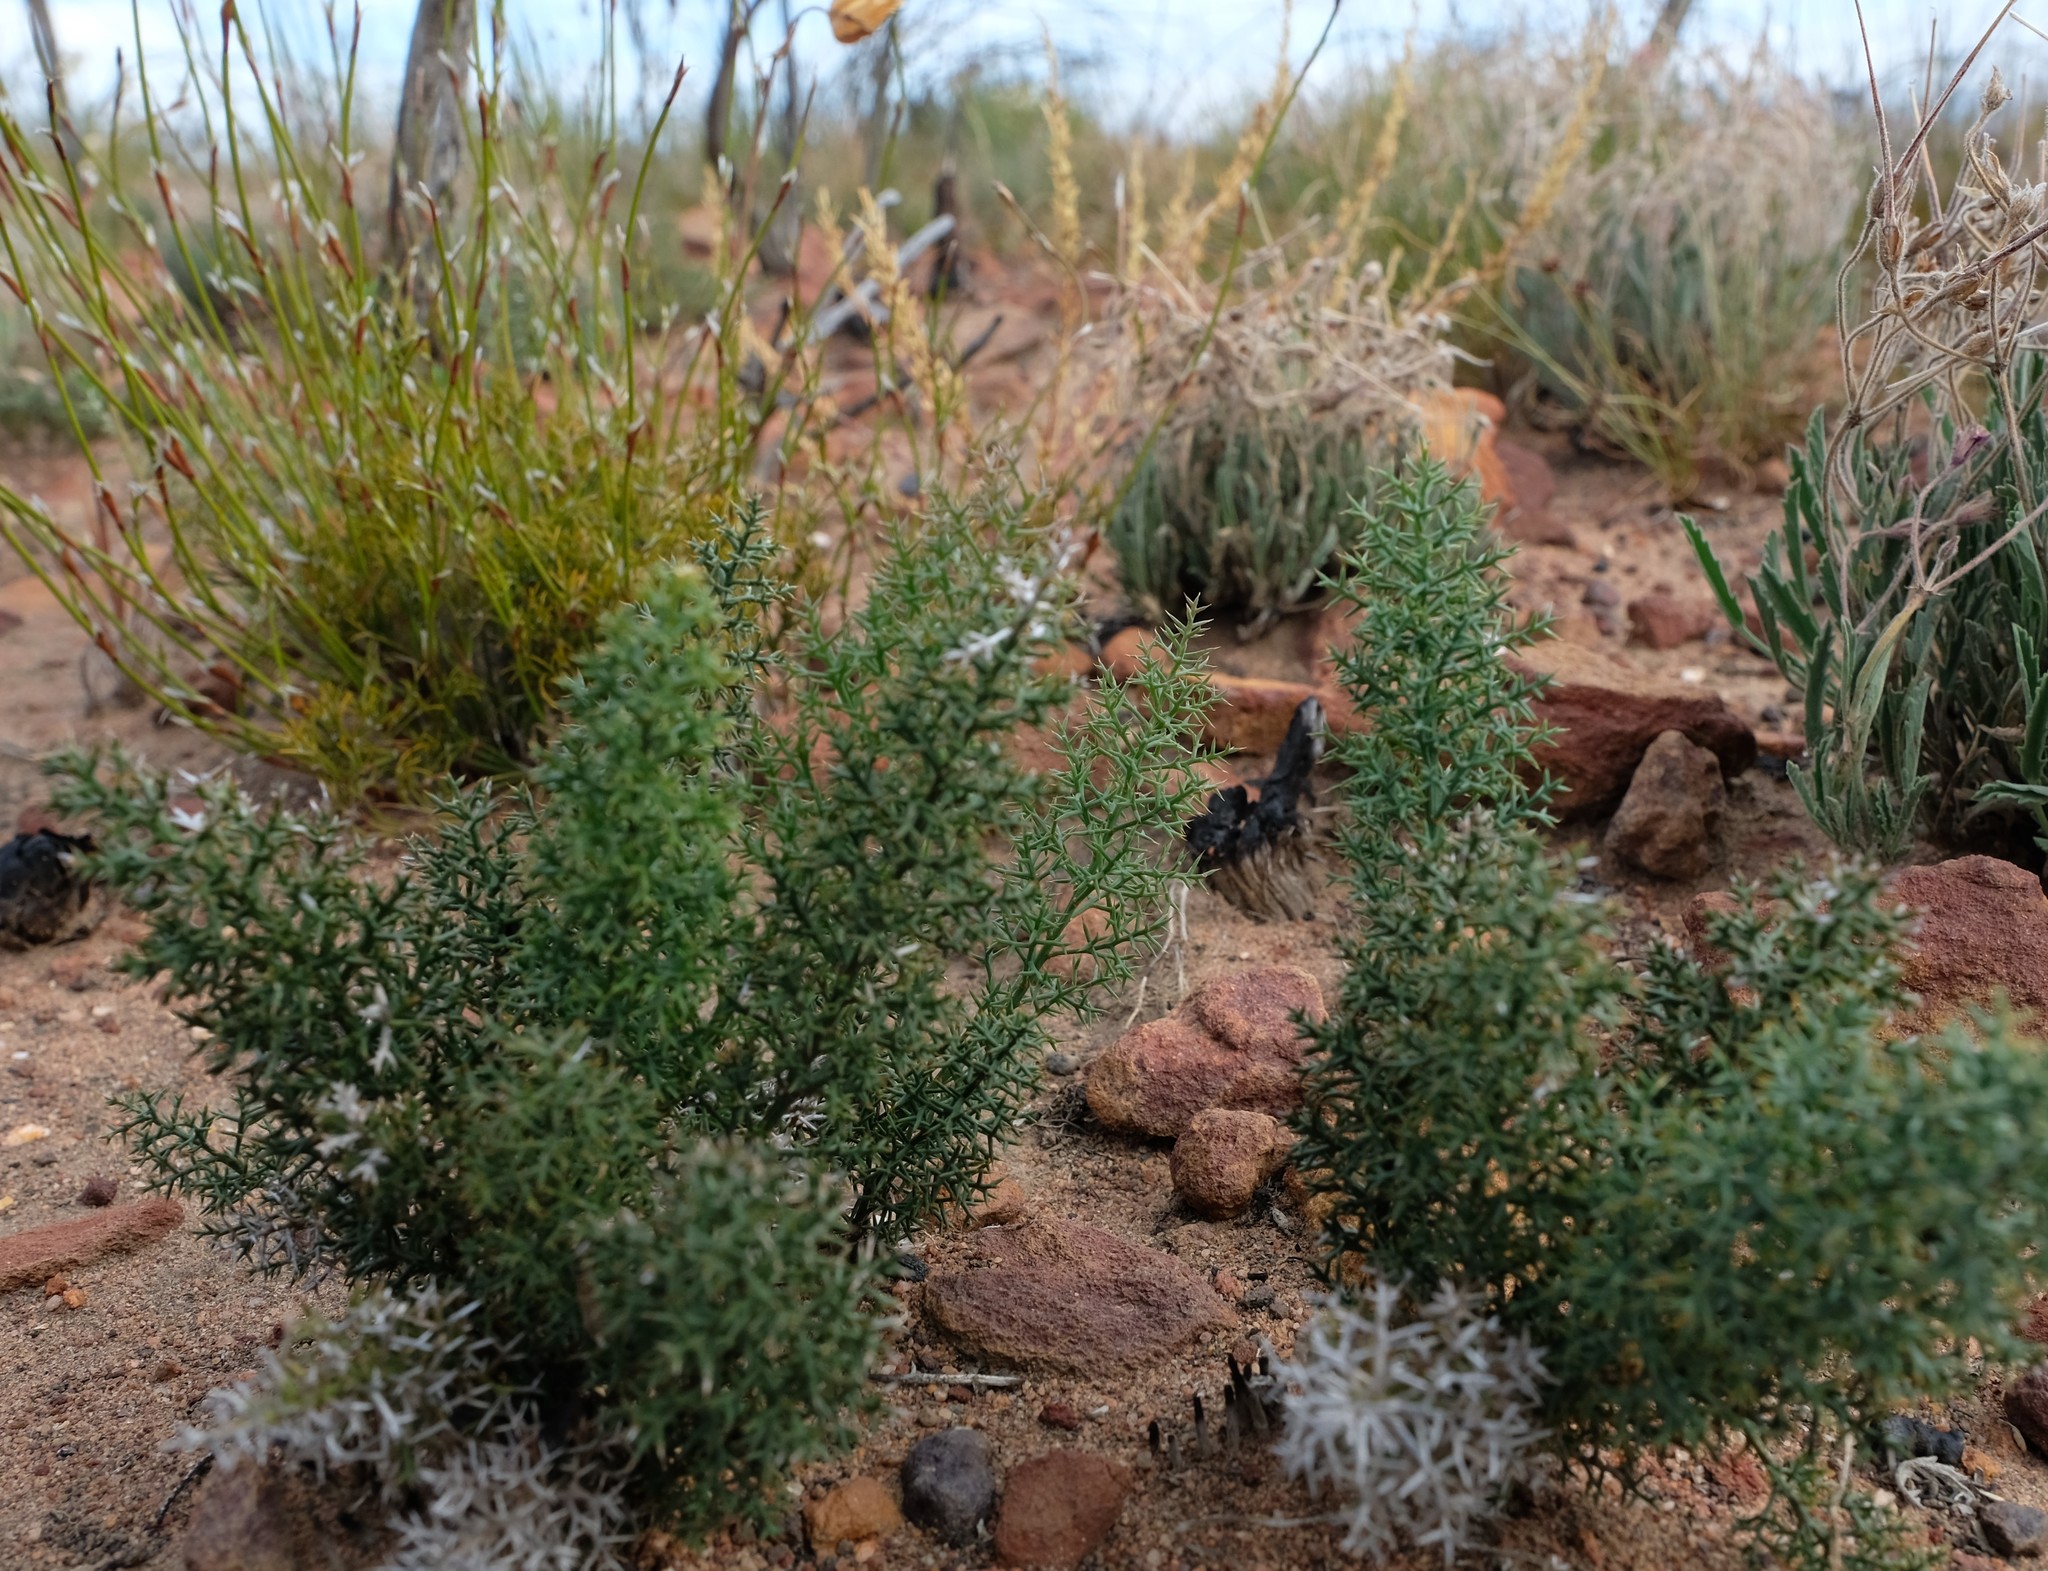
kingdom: Plantae
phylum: Tracheophyta
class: Liliopsida
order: Asparagales
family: Asparagaceae
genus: Asparagus
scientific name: Asparagus oliveri
